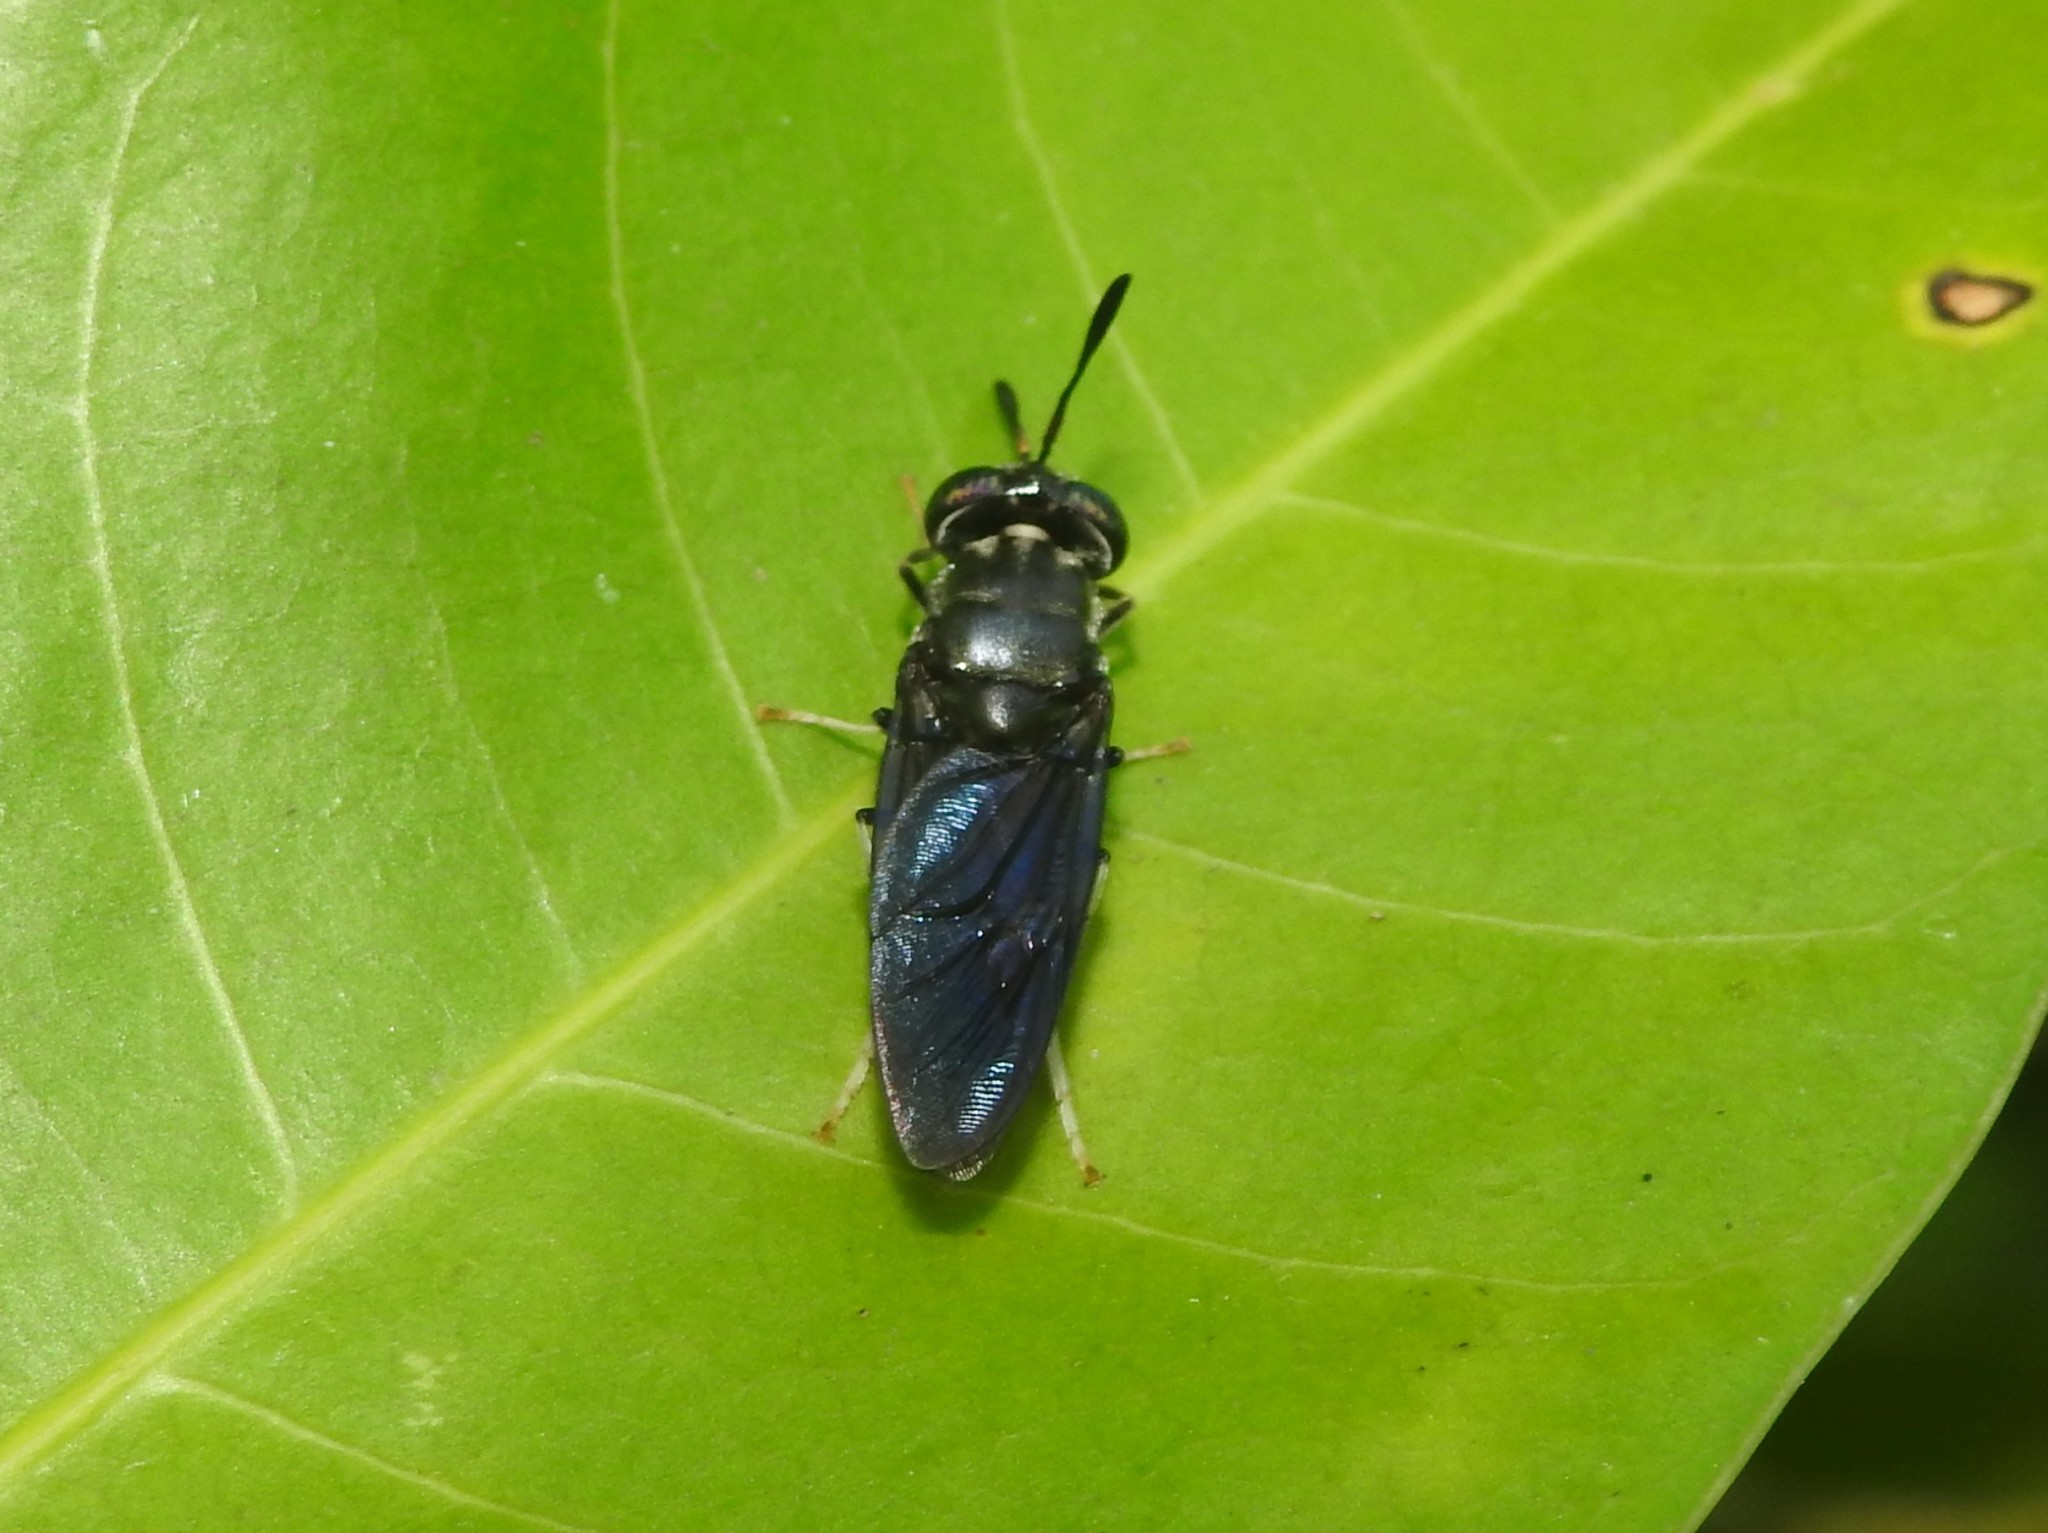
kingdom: Animalia
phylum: Arthropoda
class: Insecta
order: Diptera
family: Stratiomyidae
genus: Hermetia
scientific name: Hermetia illucens
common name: Black soldier fly
